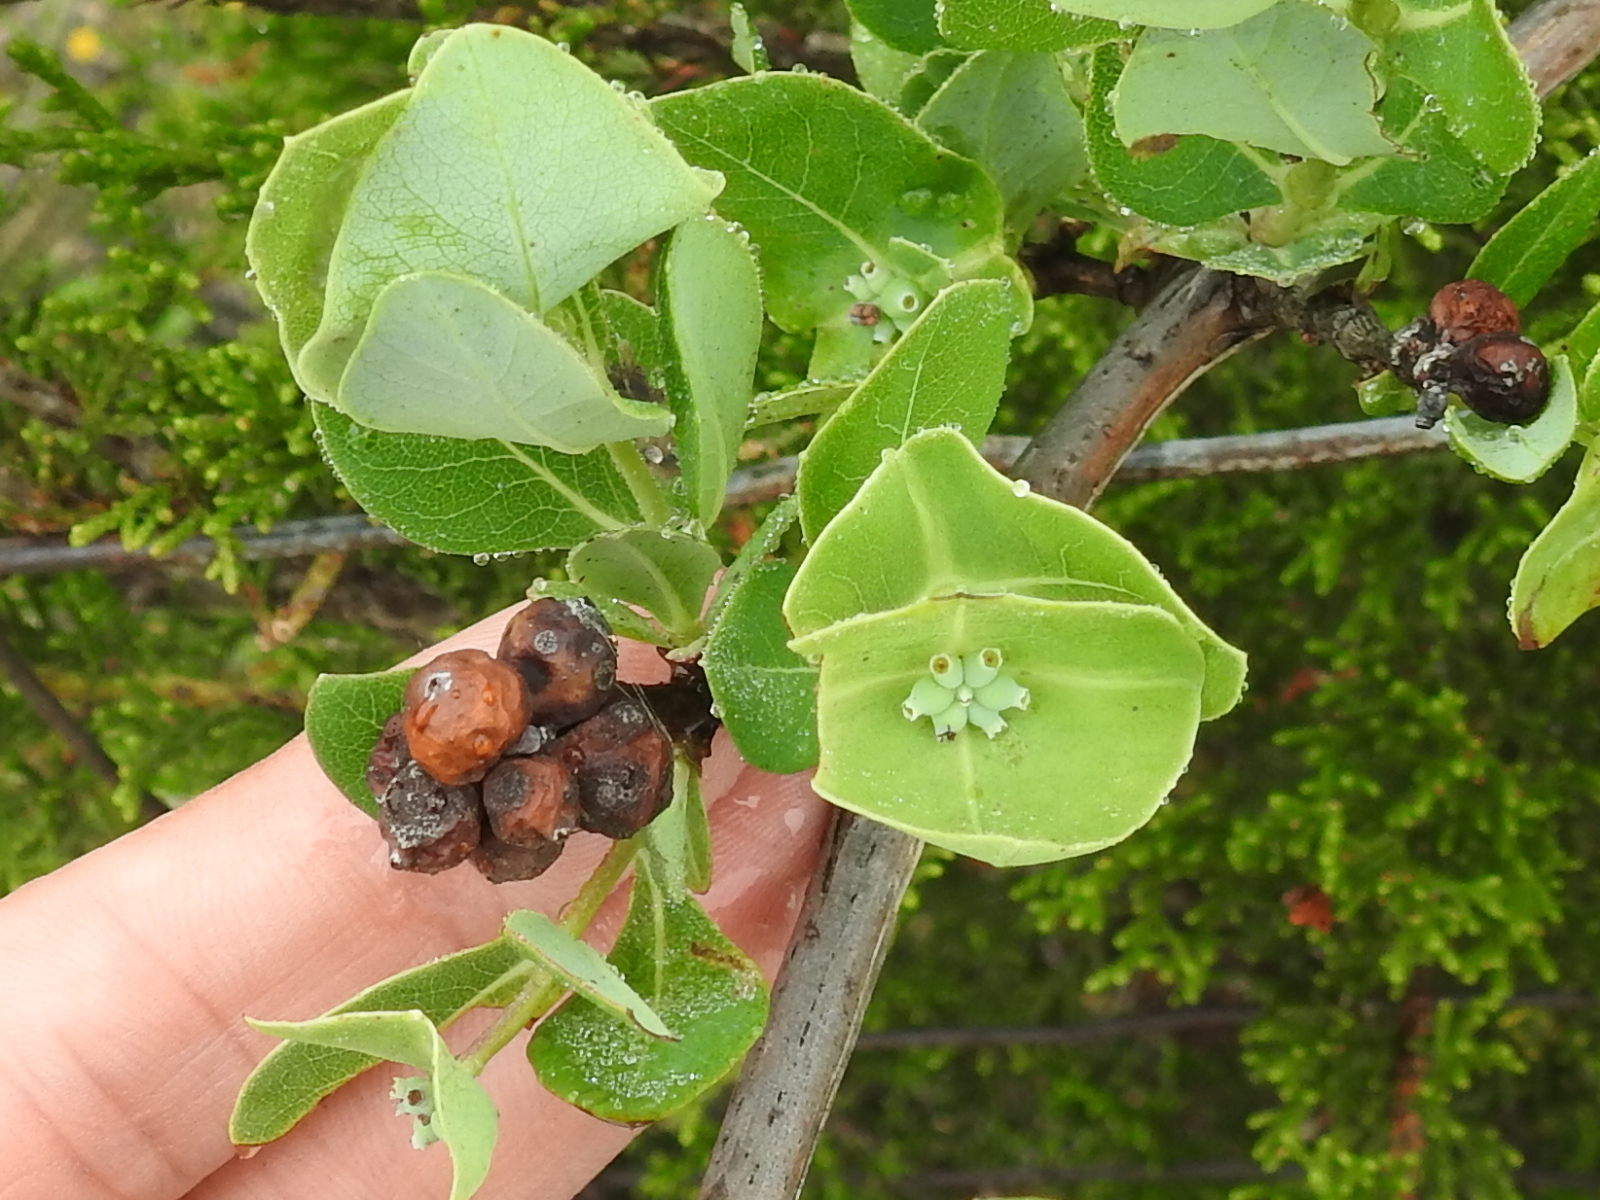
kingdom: Plantae
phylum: Tracheophyta
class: Magnoliopsida
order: Dipsacales
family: Caprifoliaceae
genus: Lonicera
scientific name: Lonicera albiflora
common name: White honeysuckle
